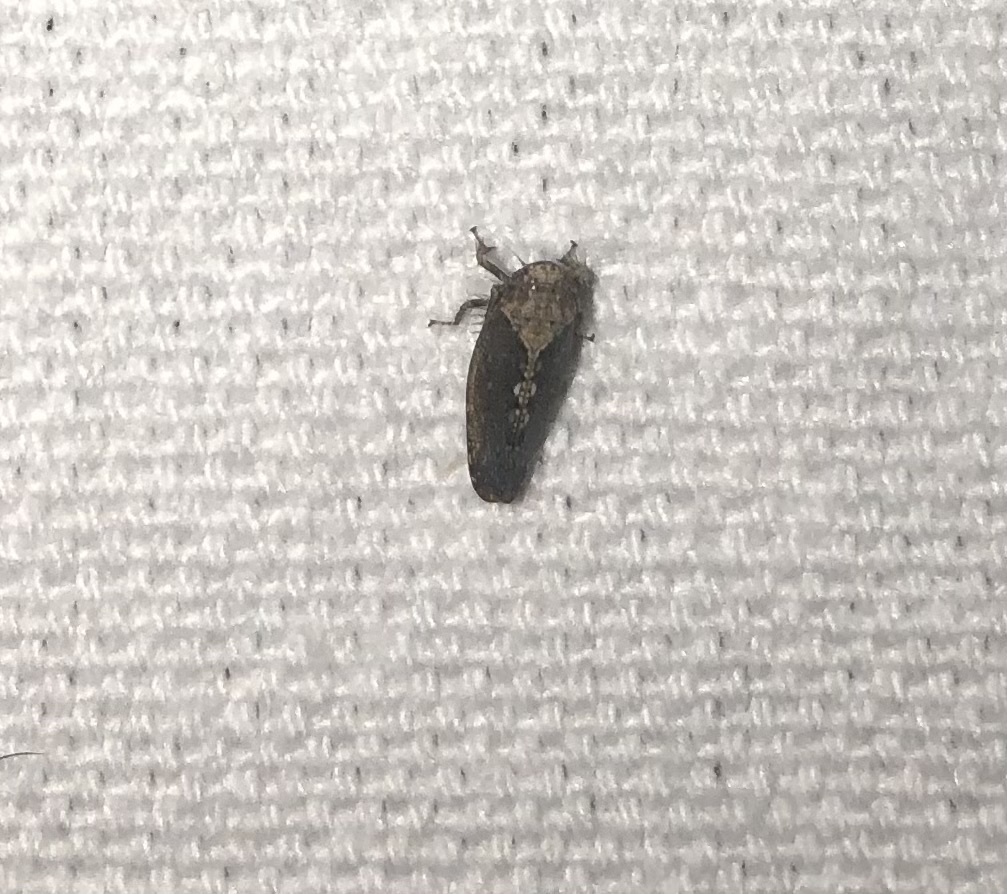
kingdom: Animalia
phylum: Arthropoda
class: Insecta
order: Hemiptera
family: Cicadellidae
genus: Excultanus
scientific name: Excultanus excultus
